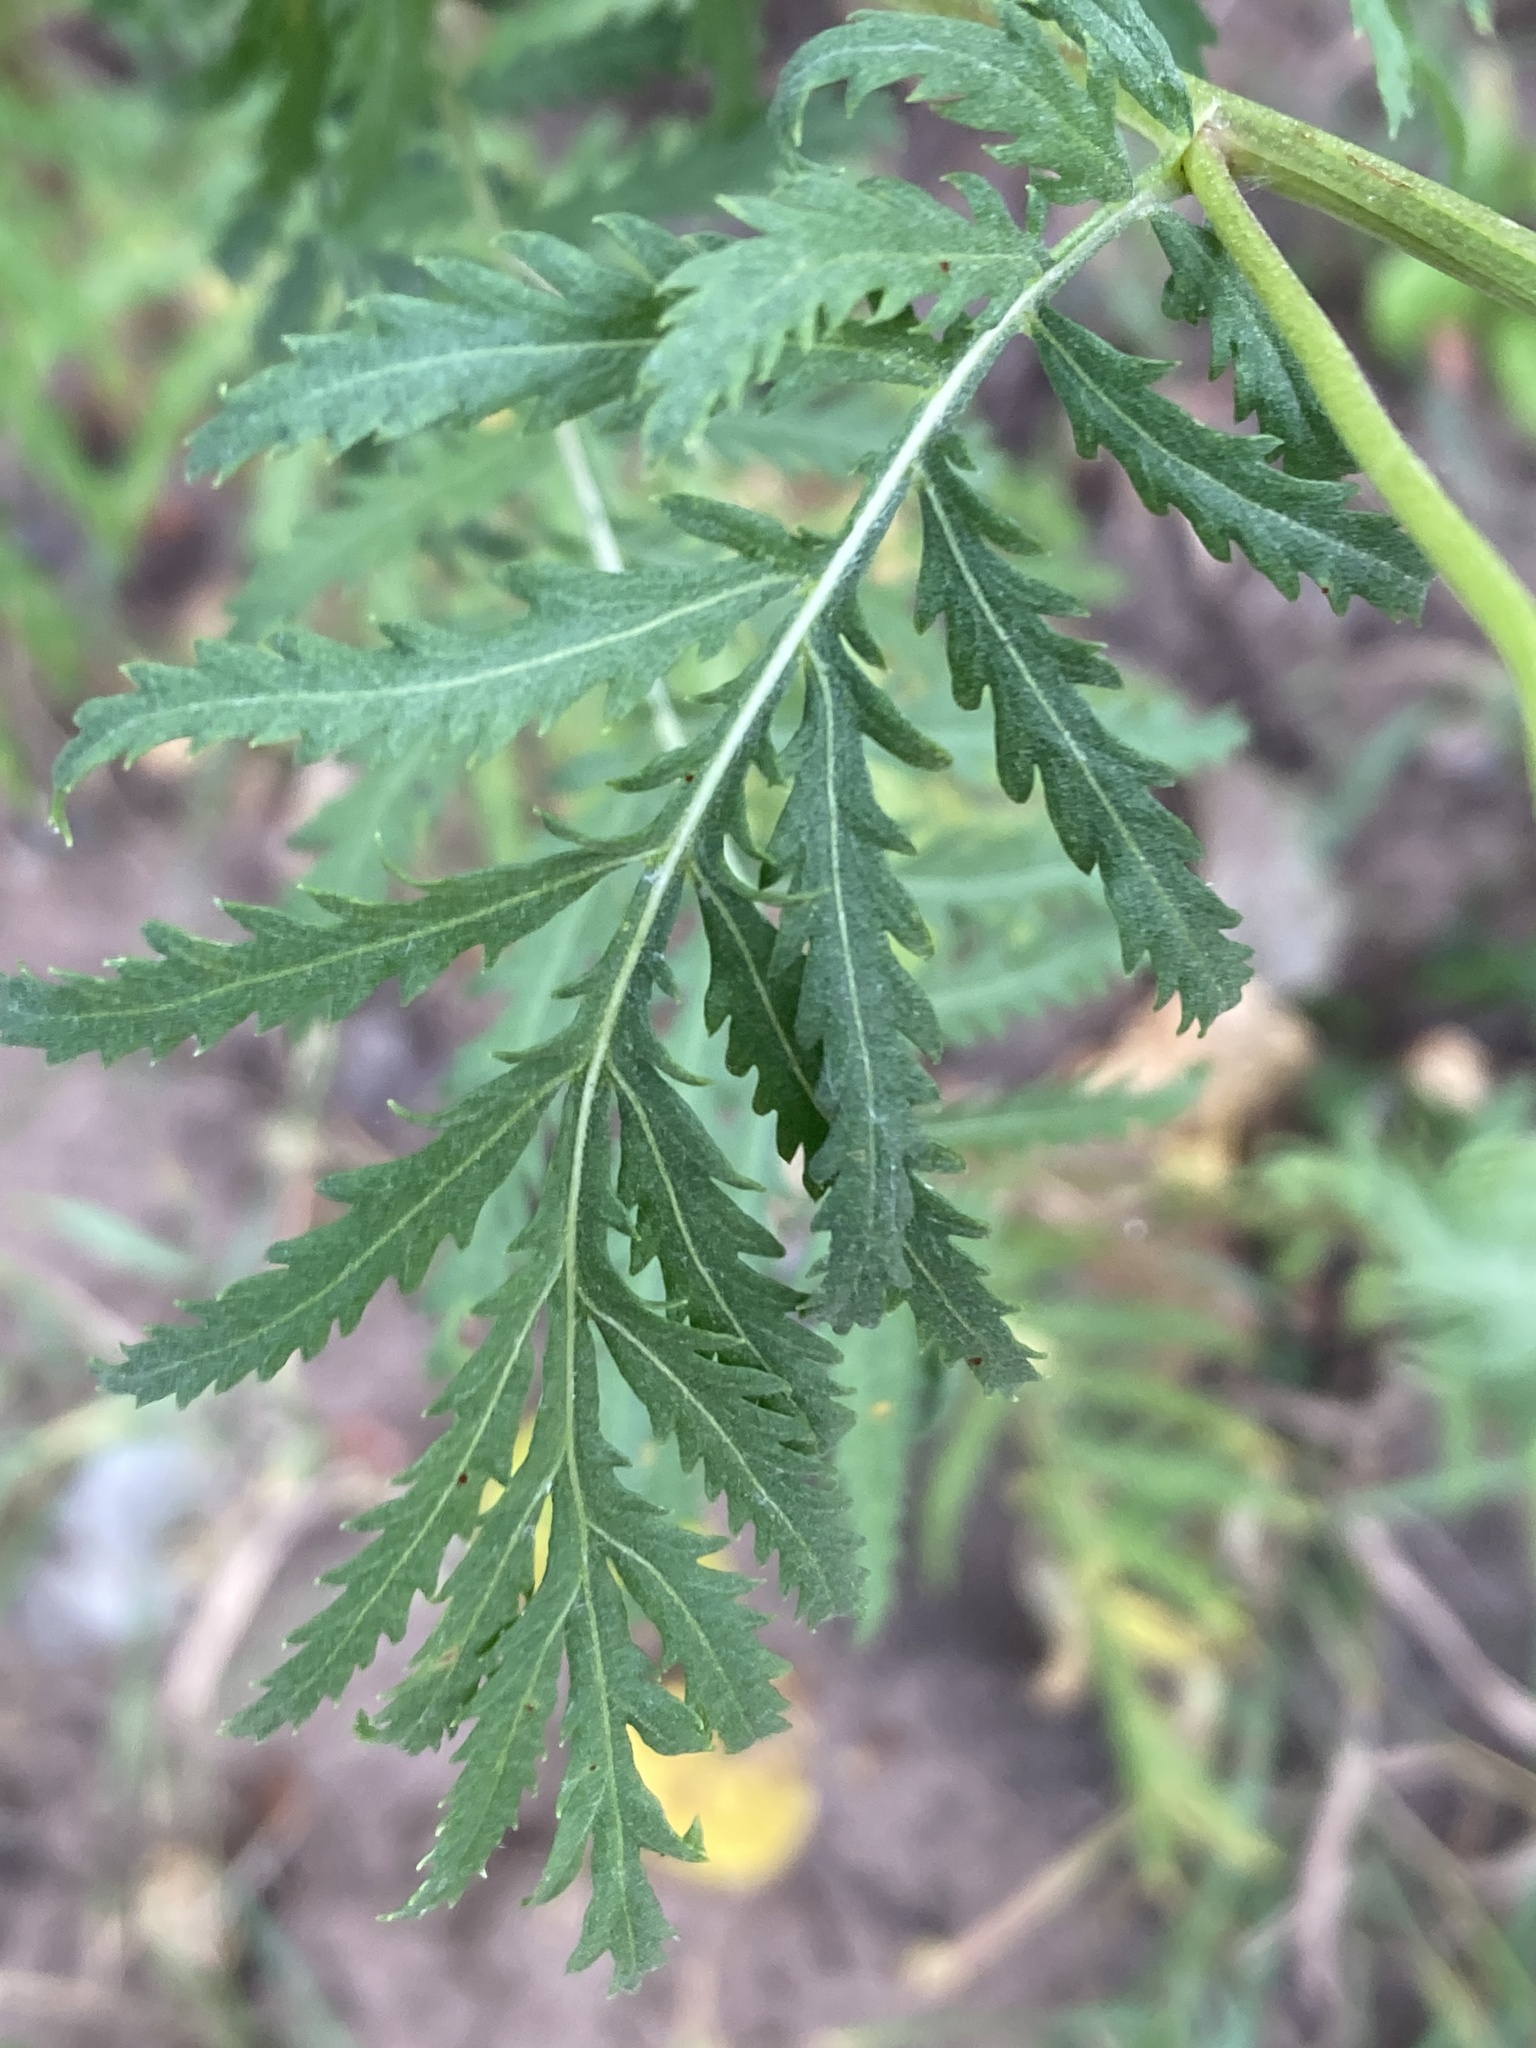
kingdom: Plantae
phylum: Tracheophyta
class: Magnoliopsida
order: Asterales
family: Asteraceae
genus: Tanacetum
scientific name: Tanacetum vulgare
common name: Common tansy
